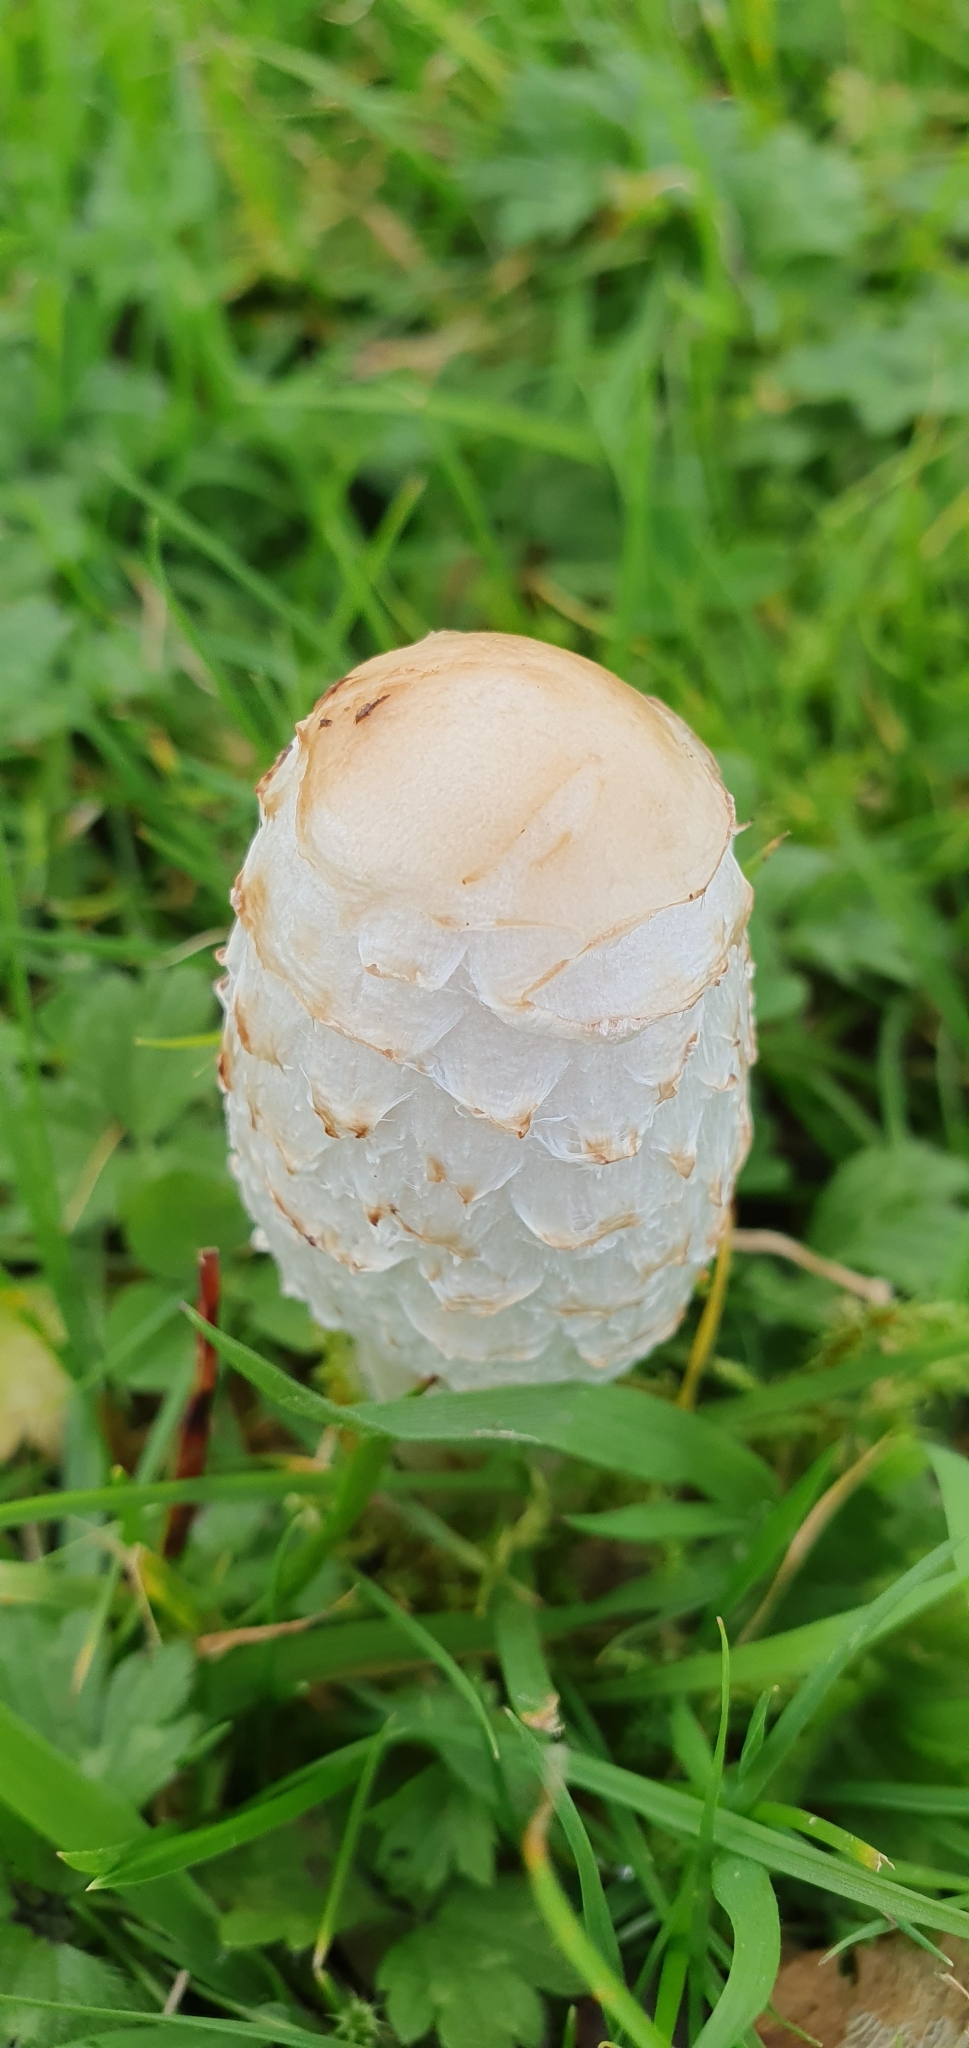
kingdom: Fungi
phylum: Basidiomycota
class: Agaricomycetes
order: Agaricales
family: Agaricaceae
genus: Coprinus
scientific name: Coprinus comatus
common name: Lawyer's wig
